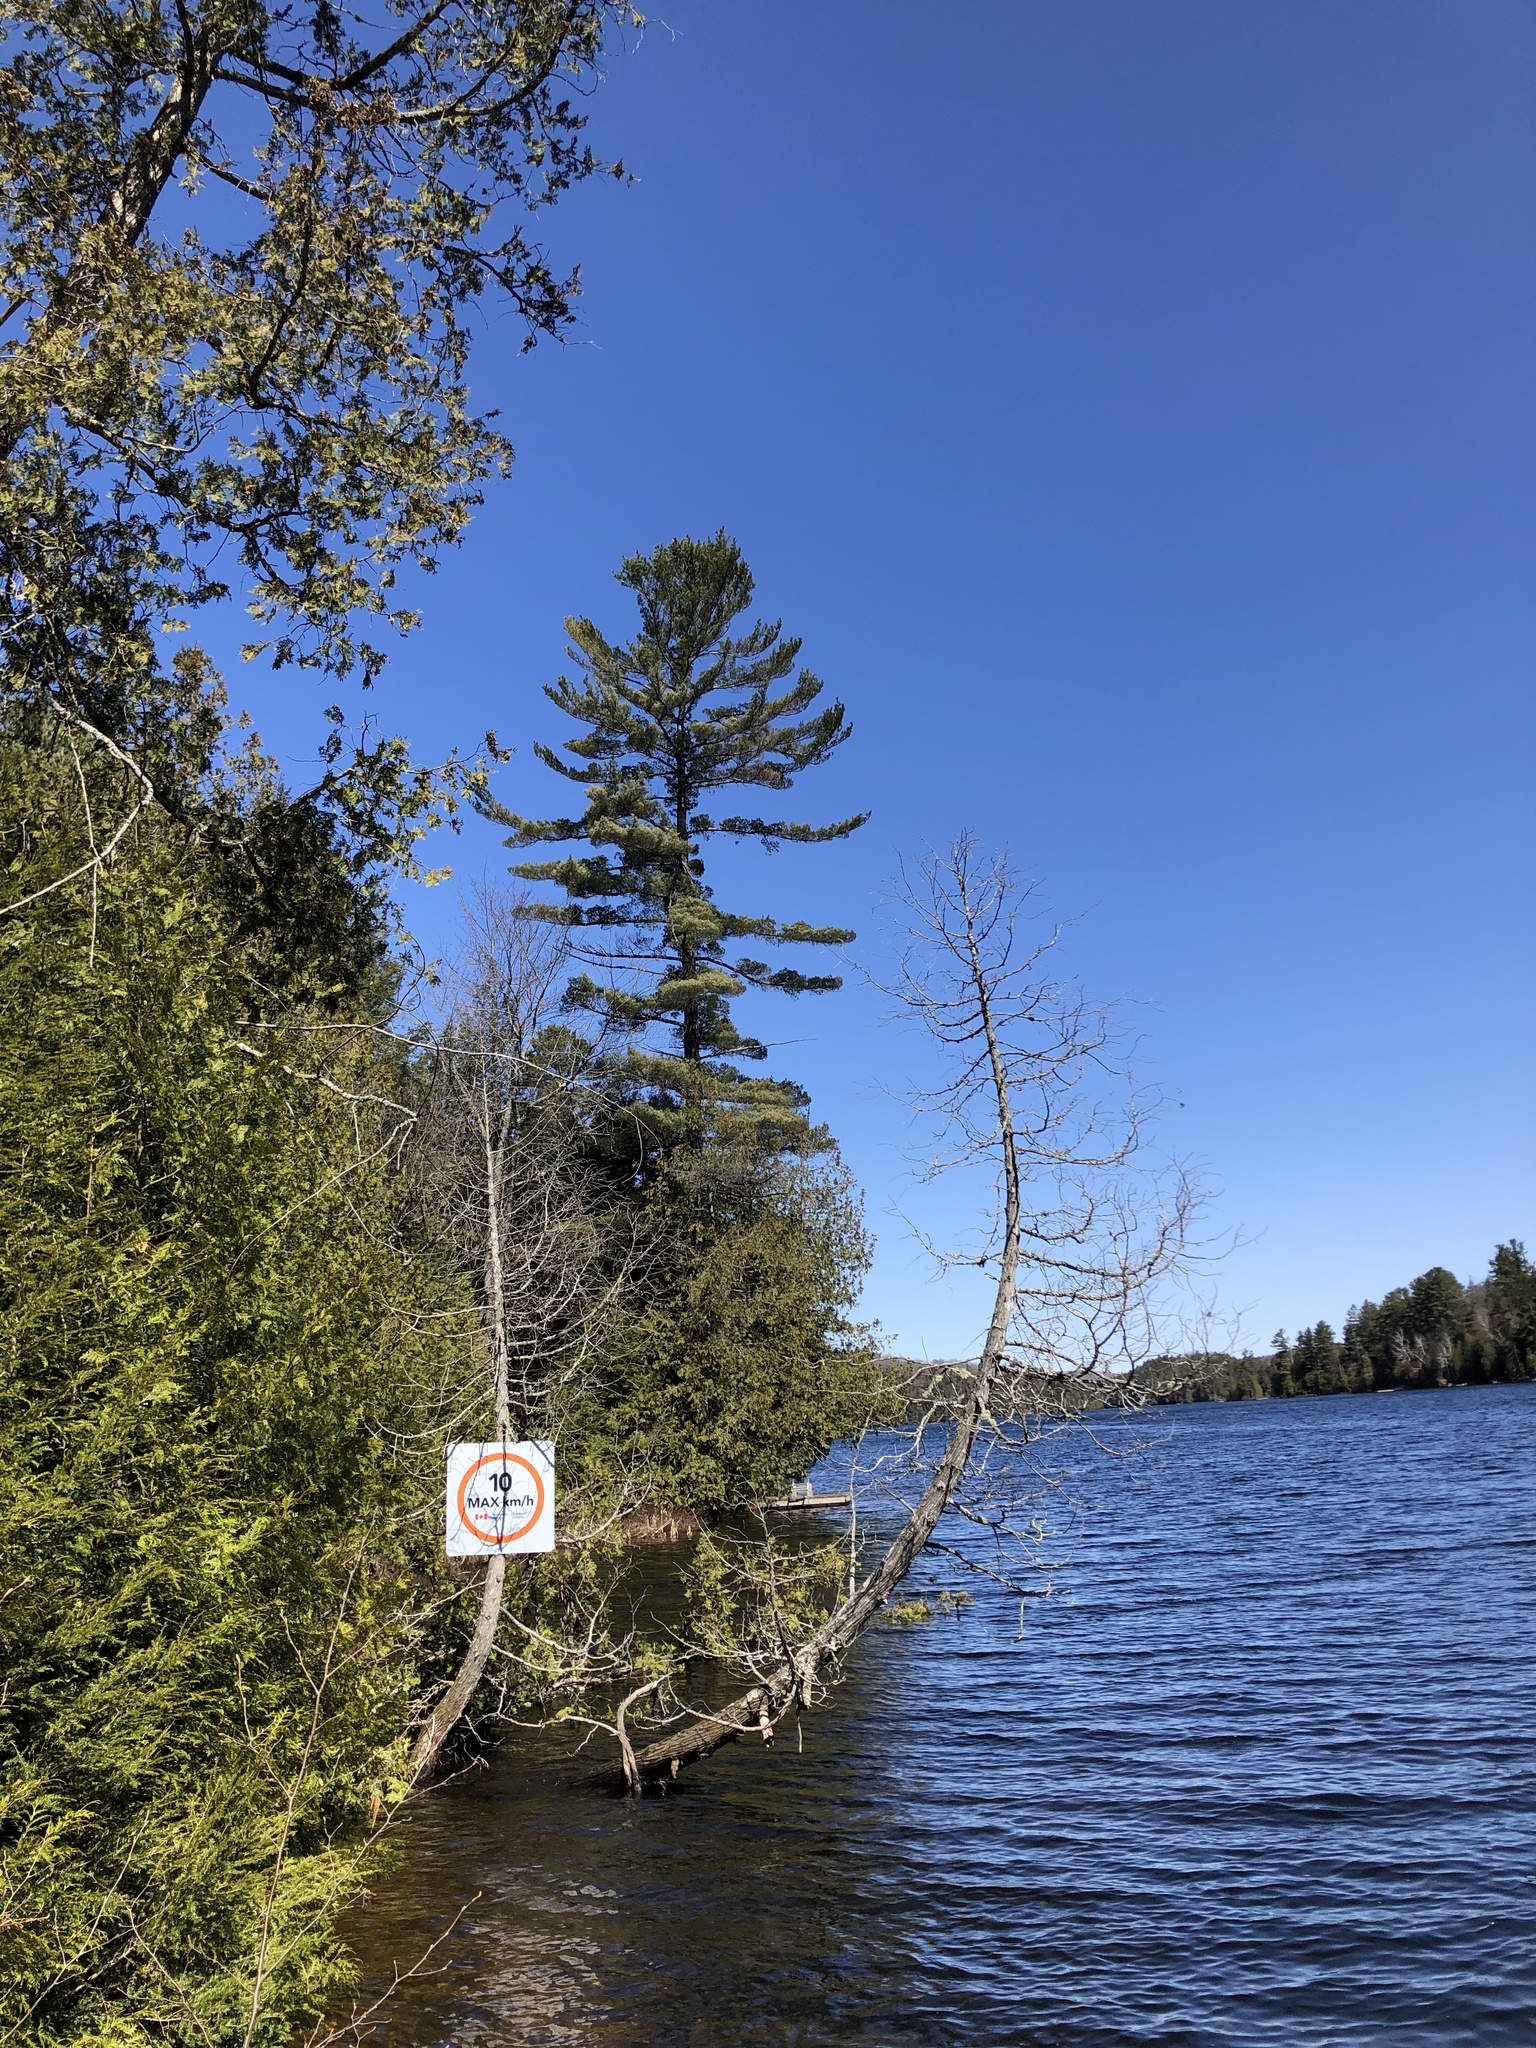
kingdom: Plantae
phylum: Tracheophyta
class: Pinopsida
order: Pinales
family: Pinaceae
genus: Pinus
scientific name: Pinus strobus
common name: Weymouth pine
